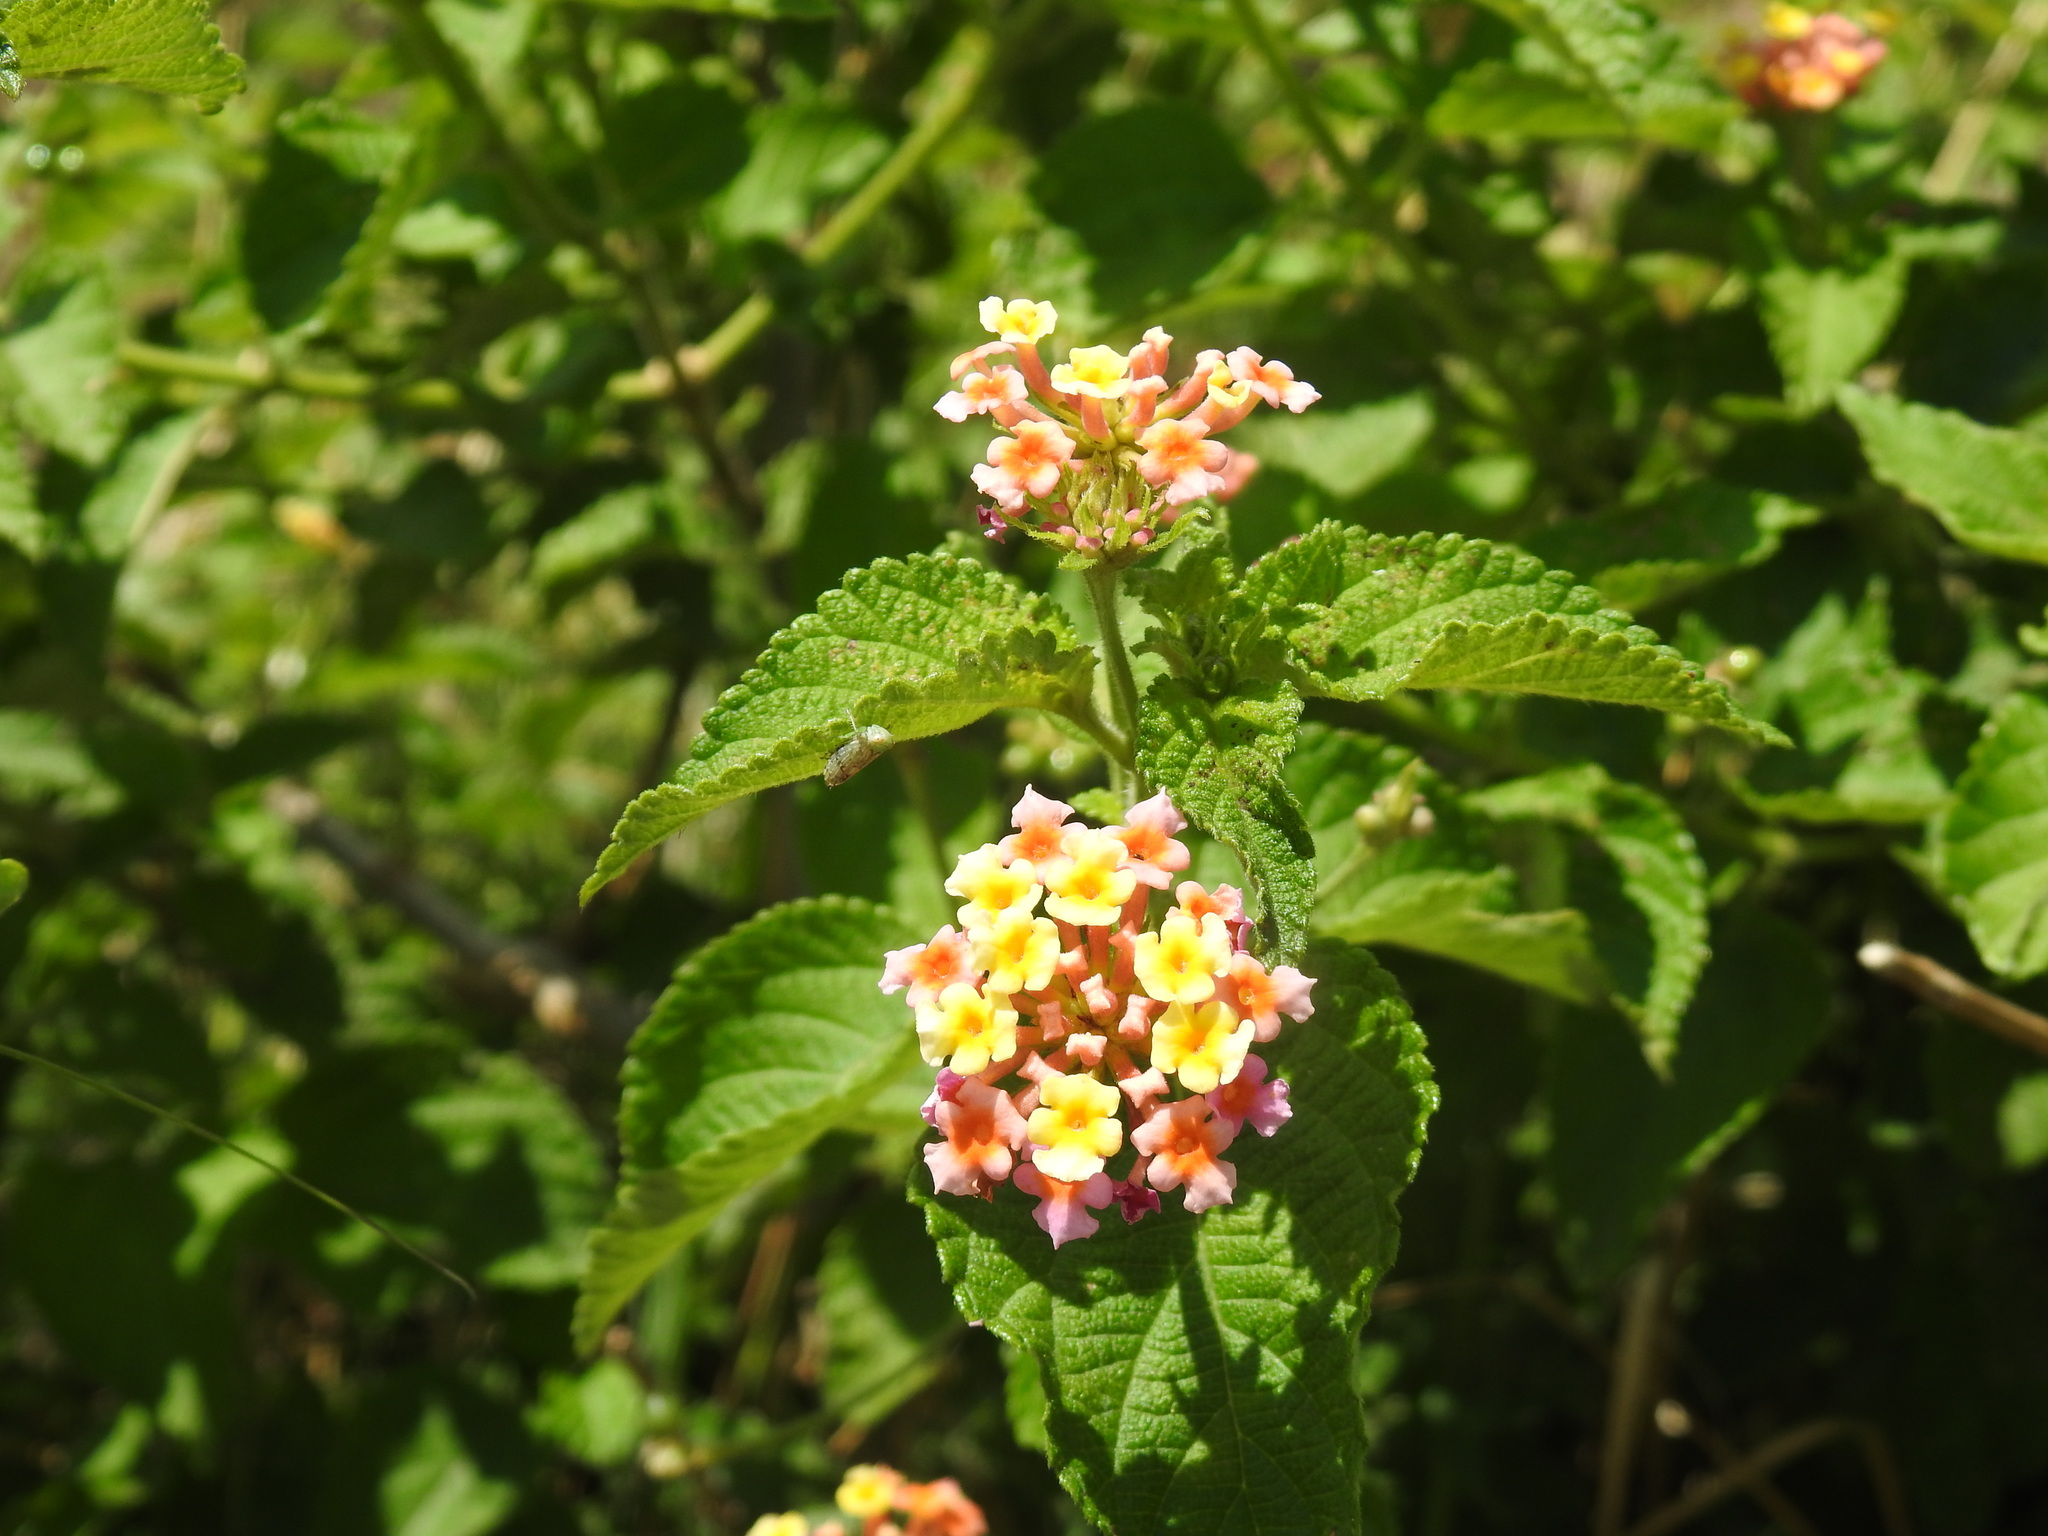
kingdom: Plantae
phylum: Tracheophyta
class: Magnoliopsida
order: Lamiales
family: Verbenaceae
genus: Lantana
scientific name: Lantana camara
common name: Lantana
